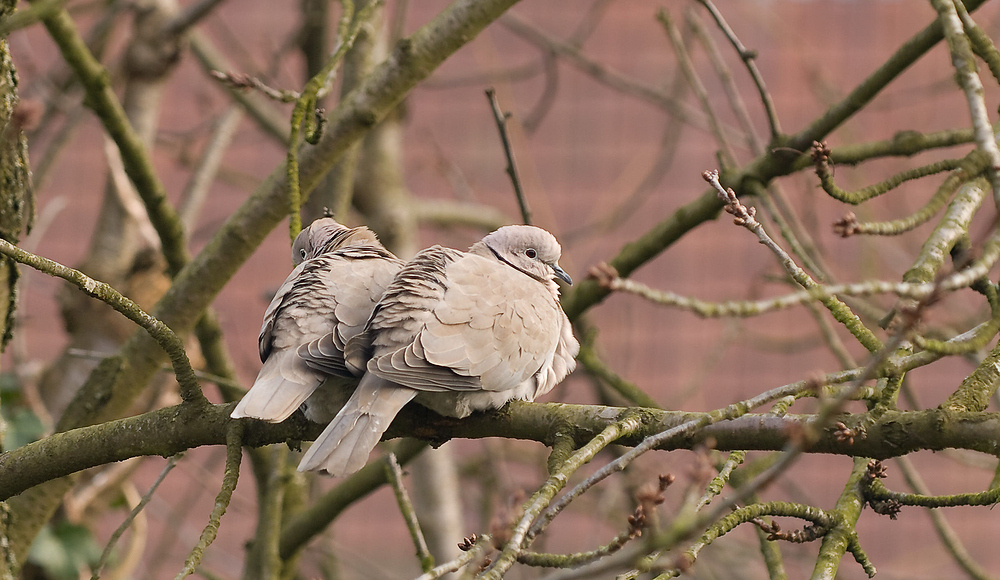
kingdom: Animalia
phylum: Chordata
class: Aves
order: Columbiformes
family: Columbidae
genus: Streptopelia
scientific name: Streptopelia decaocto
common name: Eurasian collared dove
